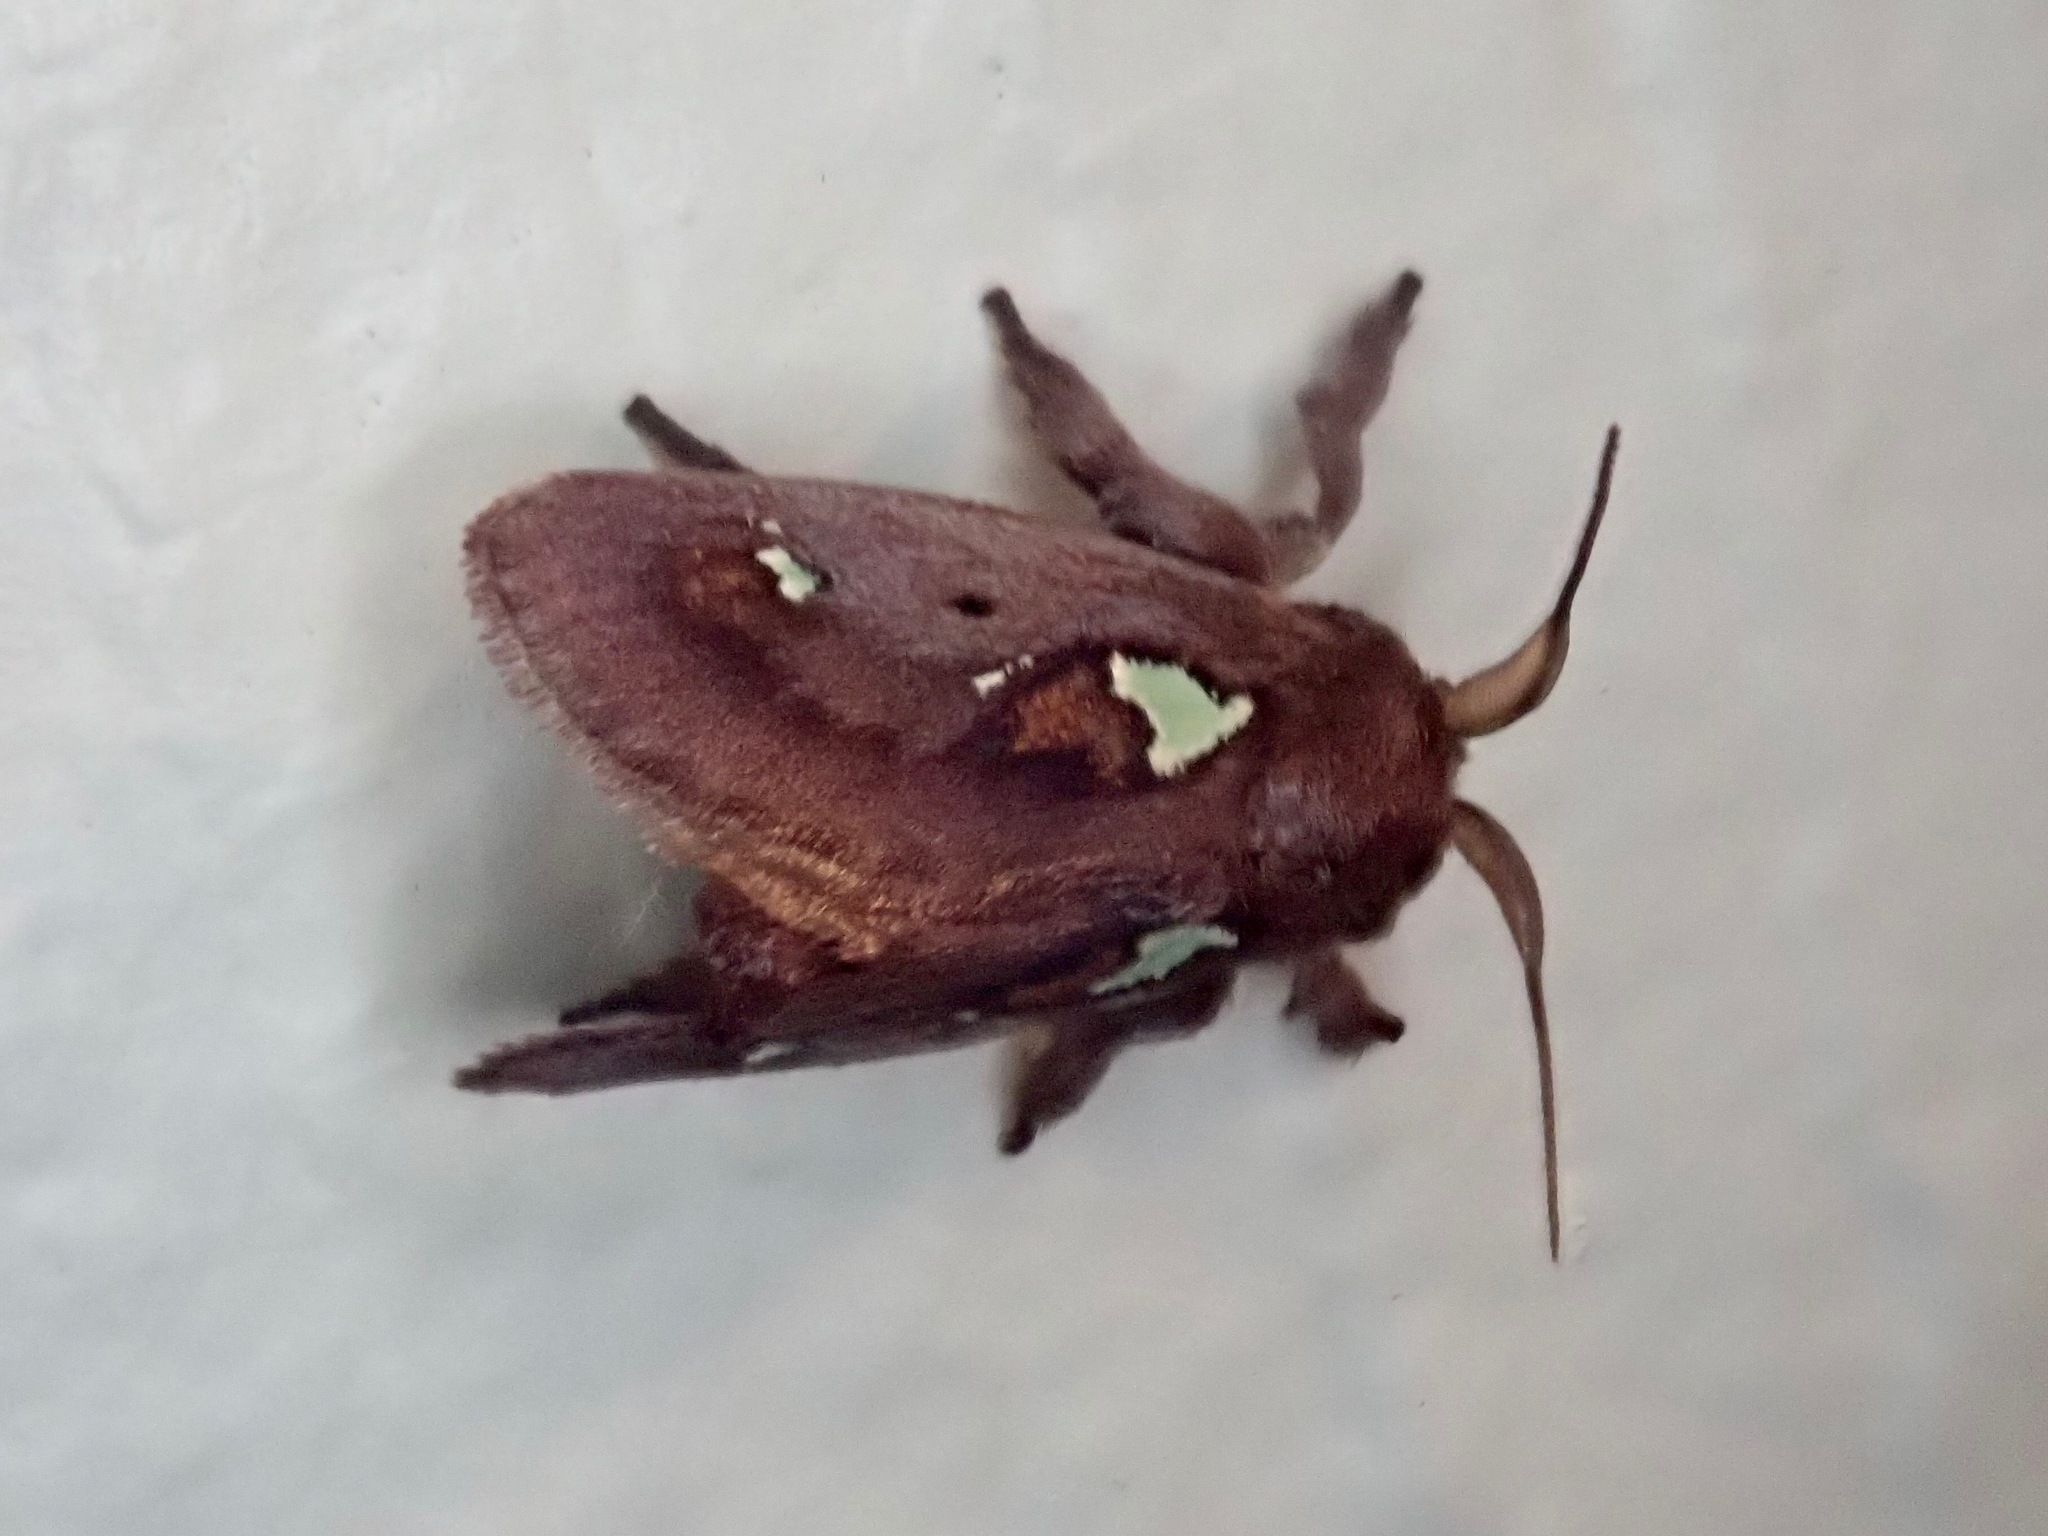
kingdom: Animalia
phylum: Arthropoda
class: Insecta
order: Lepidoptera
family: Limacodidae
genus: Euclea
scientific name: Euclea delphinii
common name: Spiny oak-slug moth
